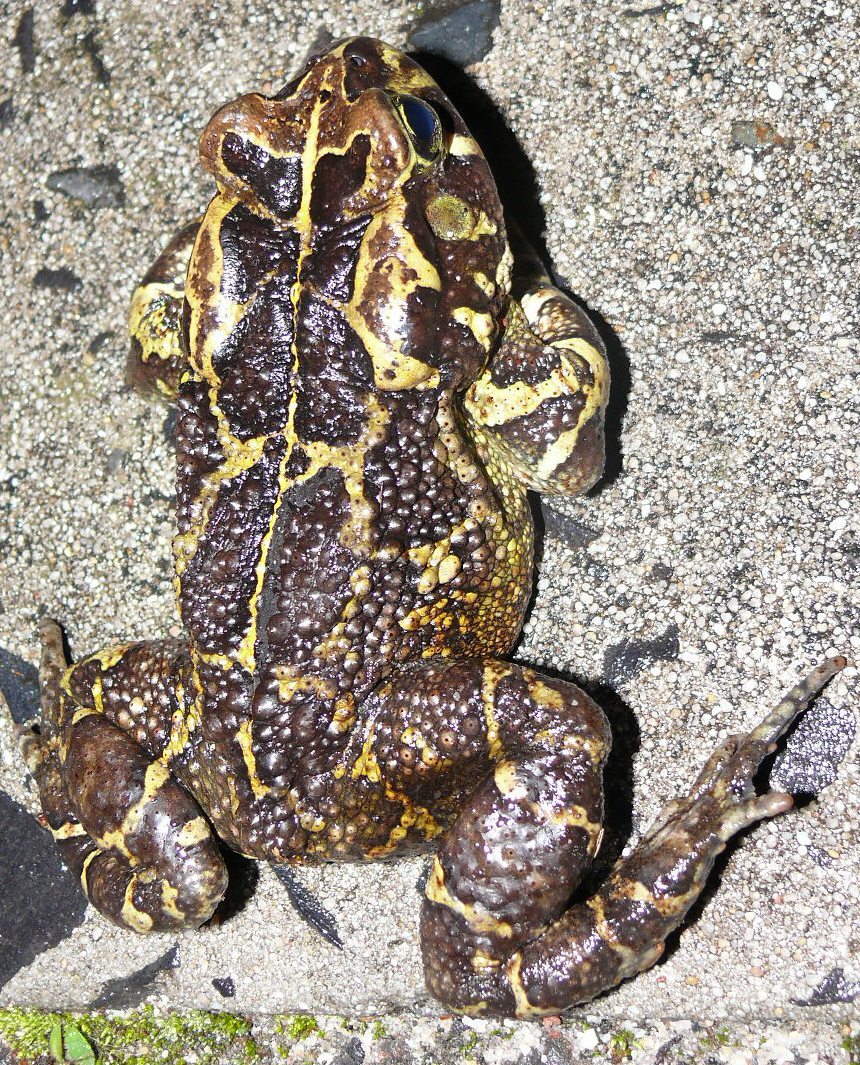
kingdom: Animalia
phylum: Chordata
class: Amphibia
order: Anura
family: Bufonidae
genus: Sclerophrys
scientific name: Sclerophrys pantherina
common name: Panther toad
